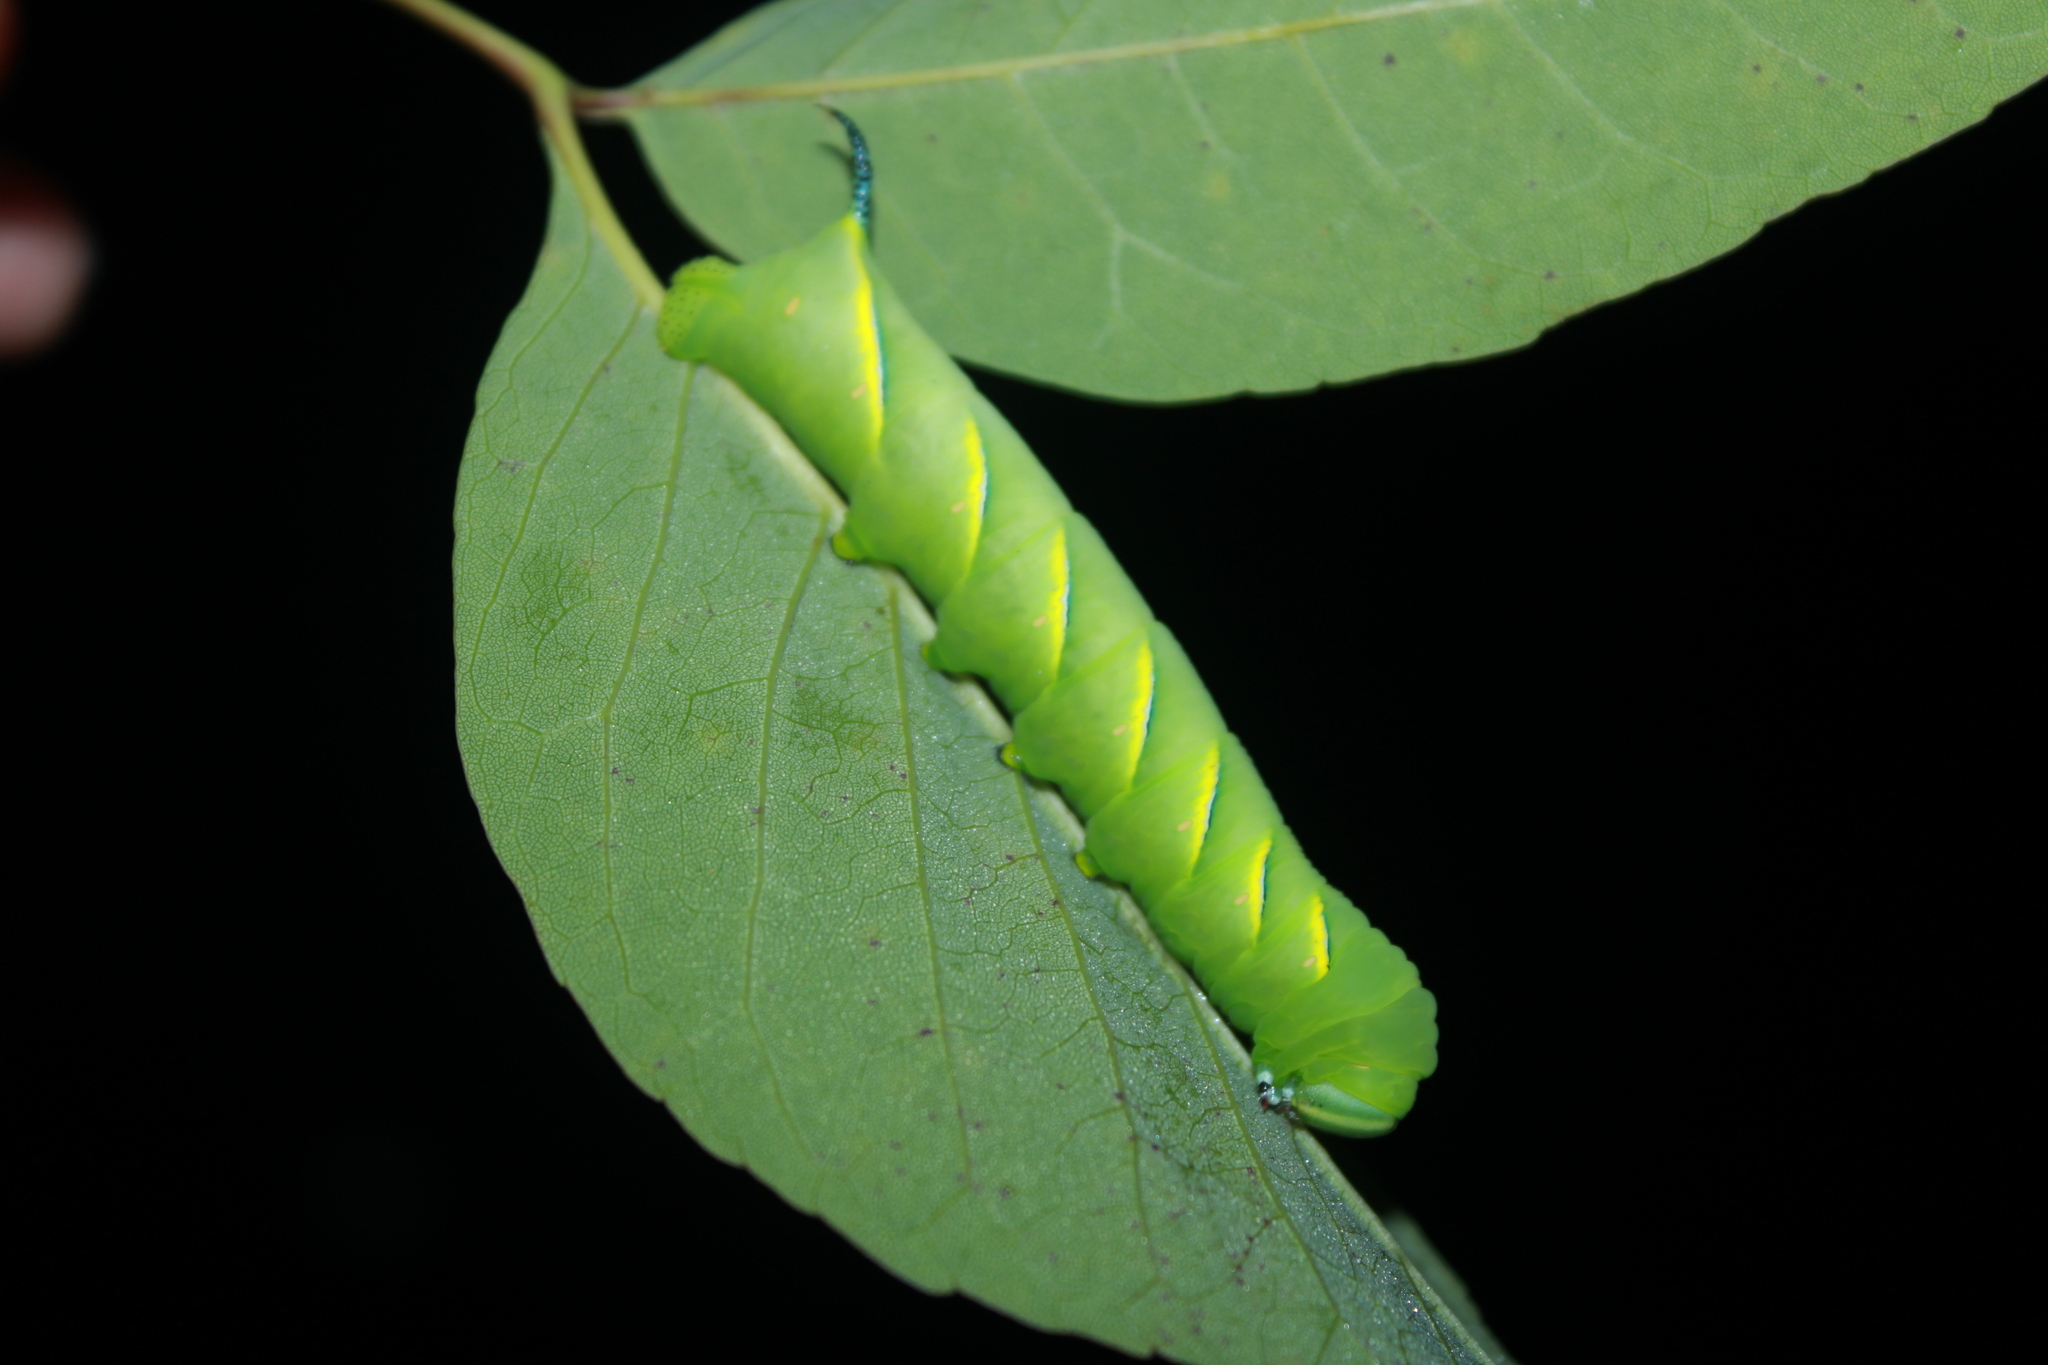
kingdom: Animalia
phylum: Arthropoda
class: Insecta
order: Lepidoptera
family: Sphingidae
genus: Sphinx
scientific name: Sphinx kalmiae
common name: Laurel sphinx
